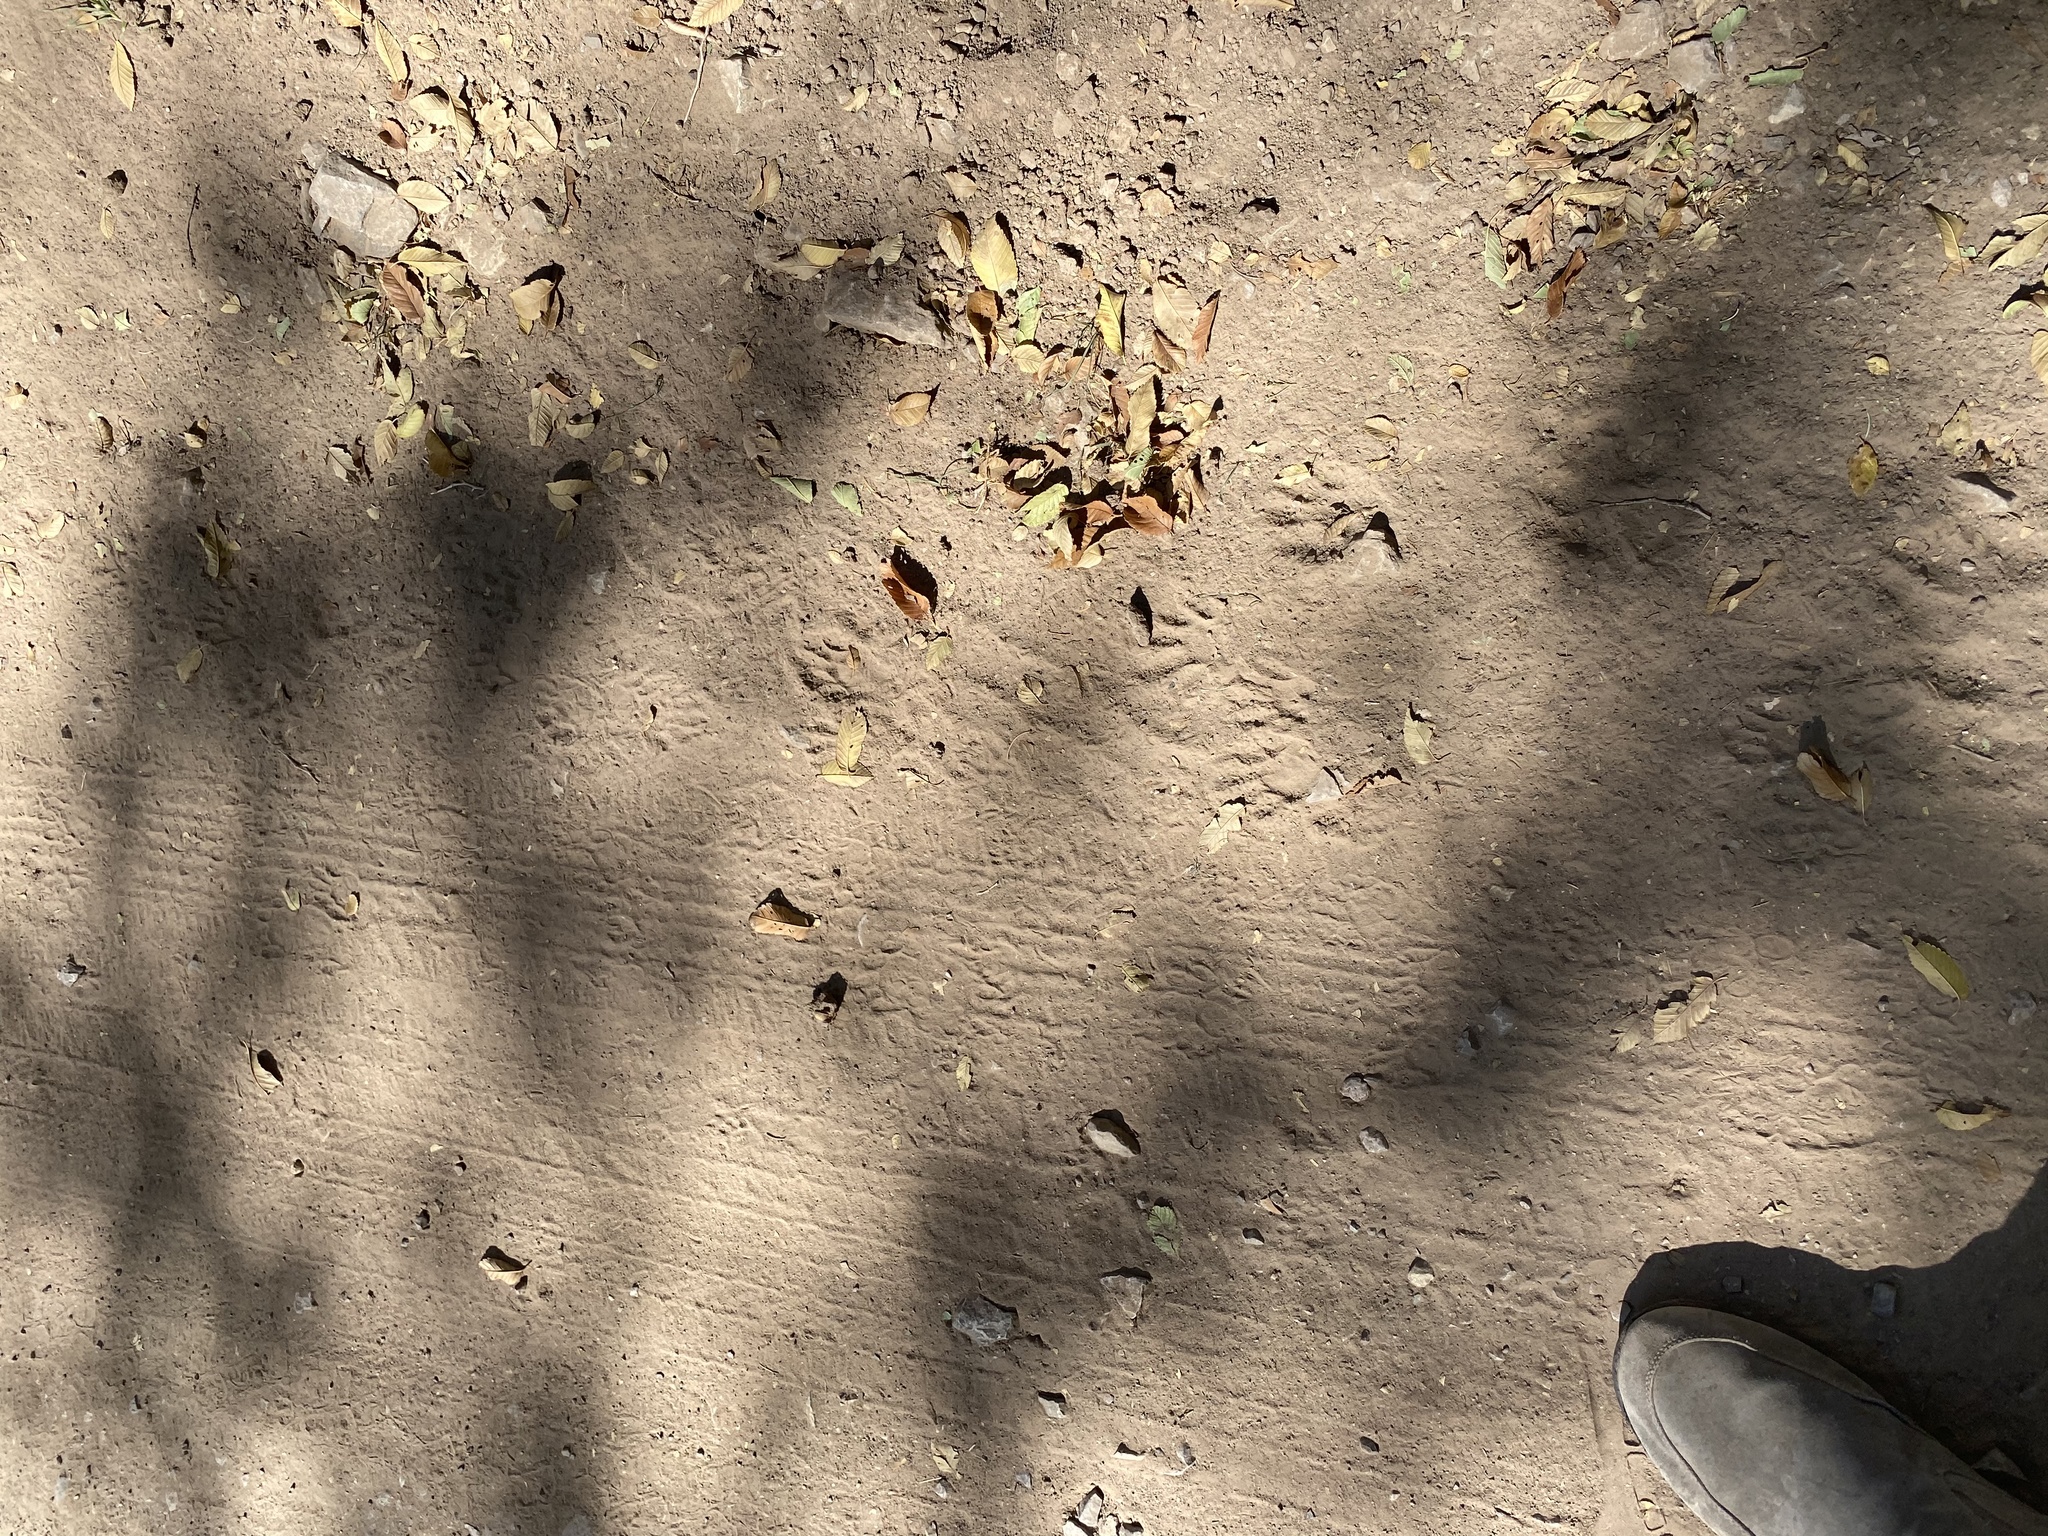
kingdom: Animalia
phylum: Chordata
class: Mammalia
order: Carnivora
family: Procyonidae
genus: Procyon
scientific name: Procyon lotor
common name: Raccoon
